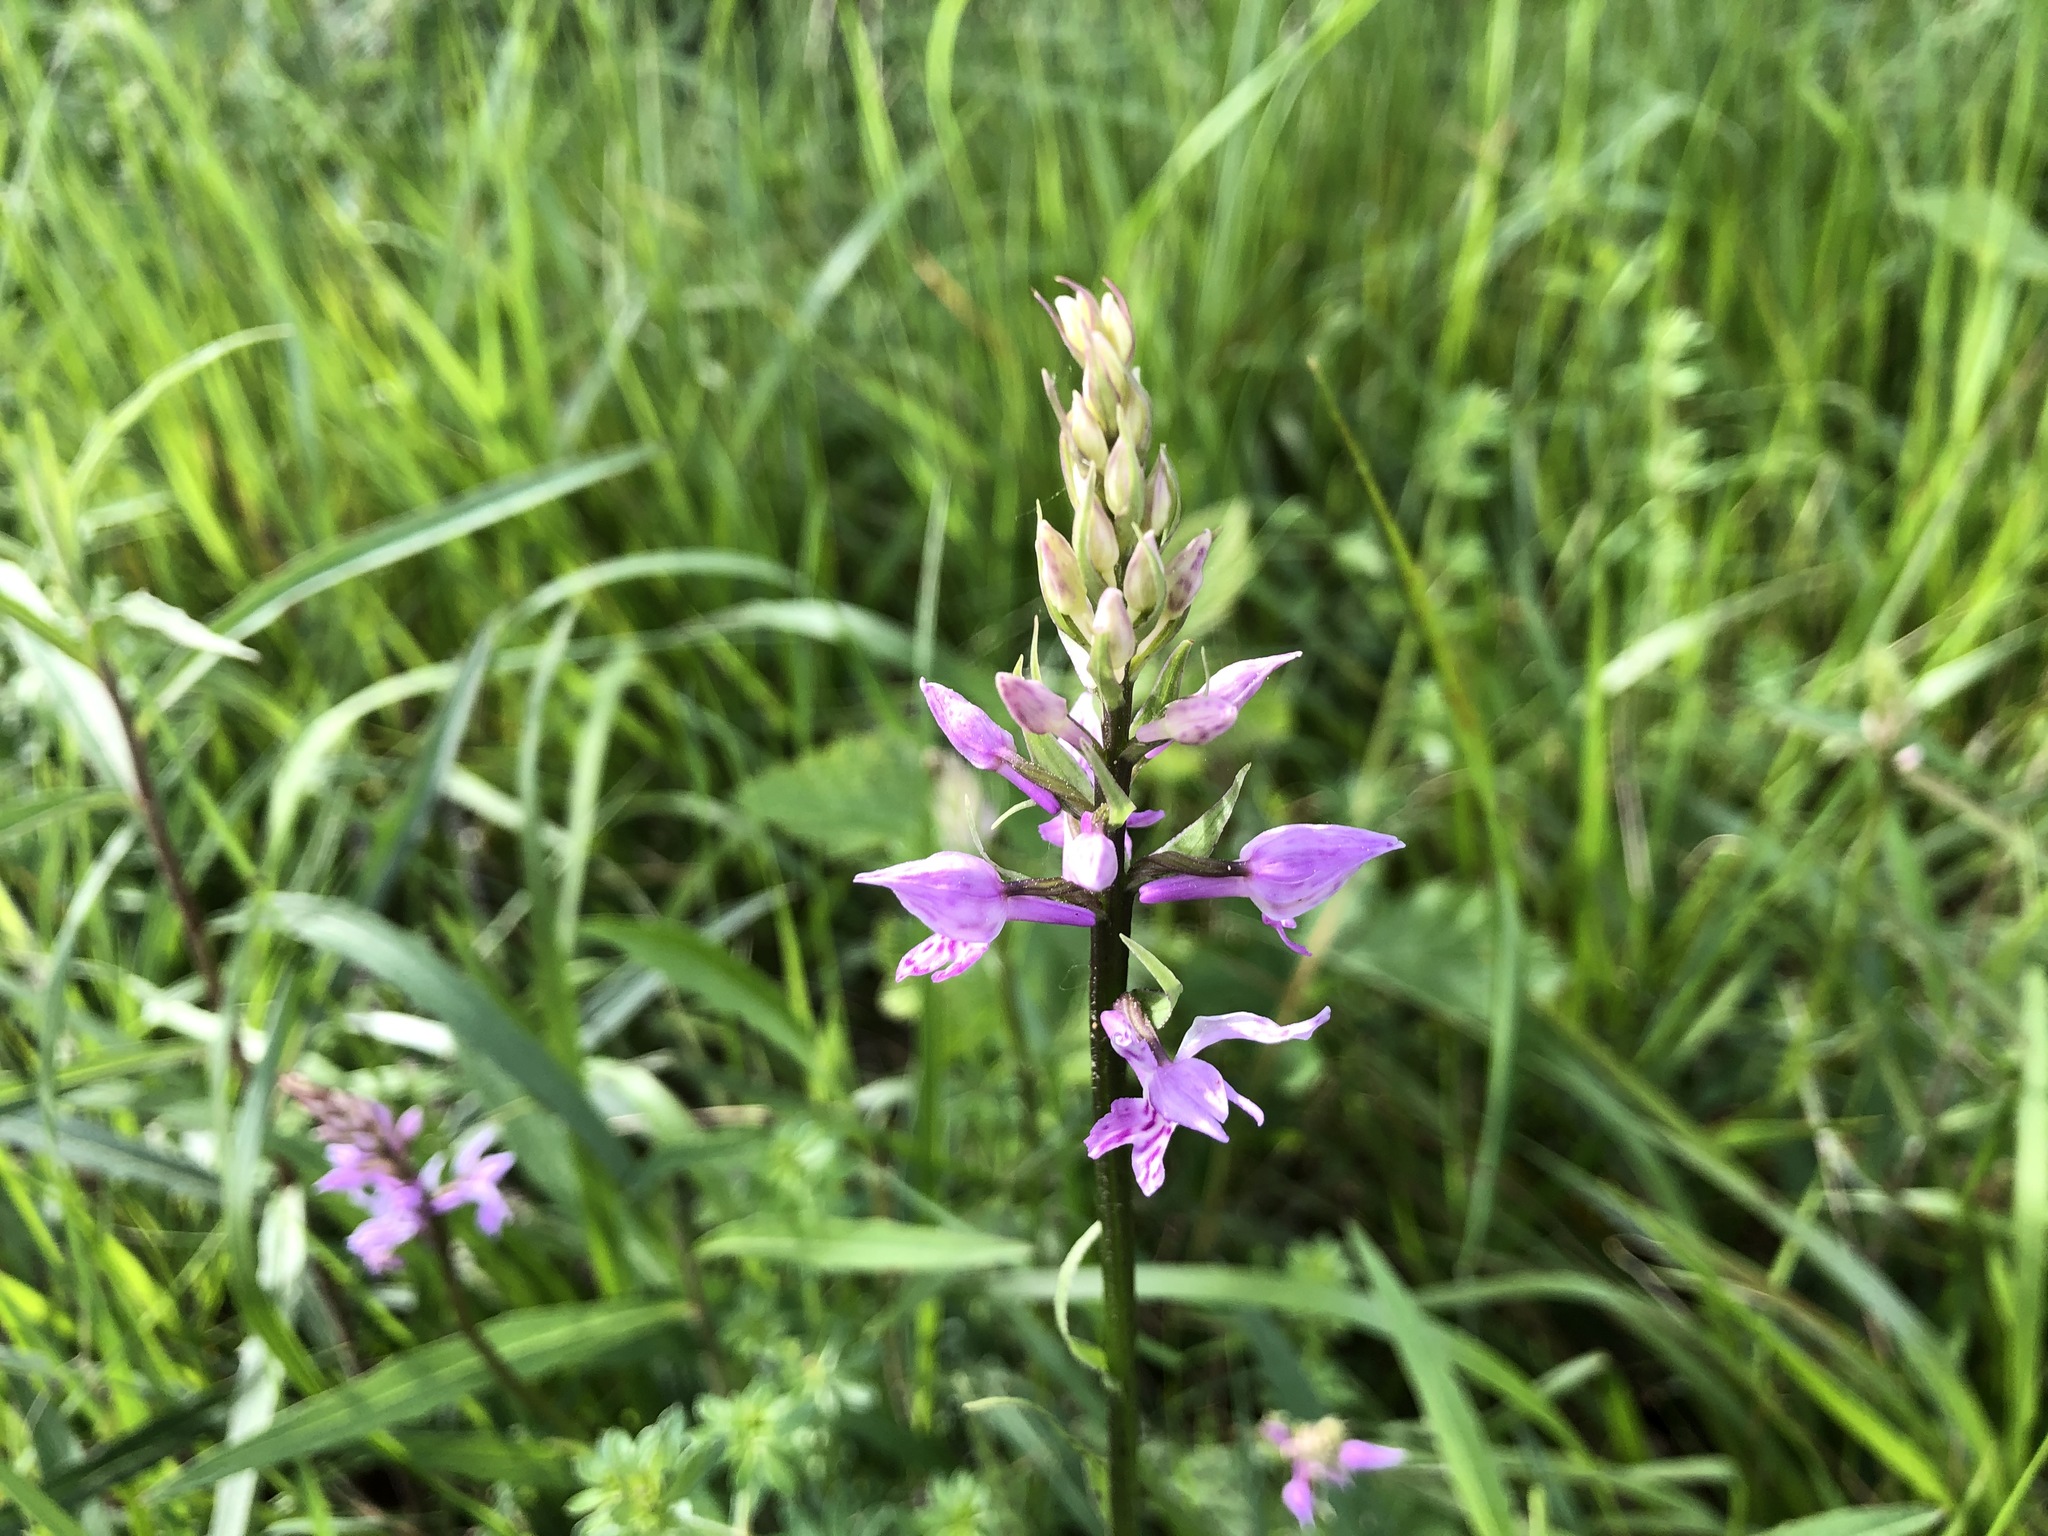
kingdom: Plantae
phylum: Tracheophyta
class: Liliopsida
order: Asparagales
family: Orchidaceae
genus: Dactylorhiza
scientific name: Dactylorhiza maculata
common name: Heath spotted-orchid
